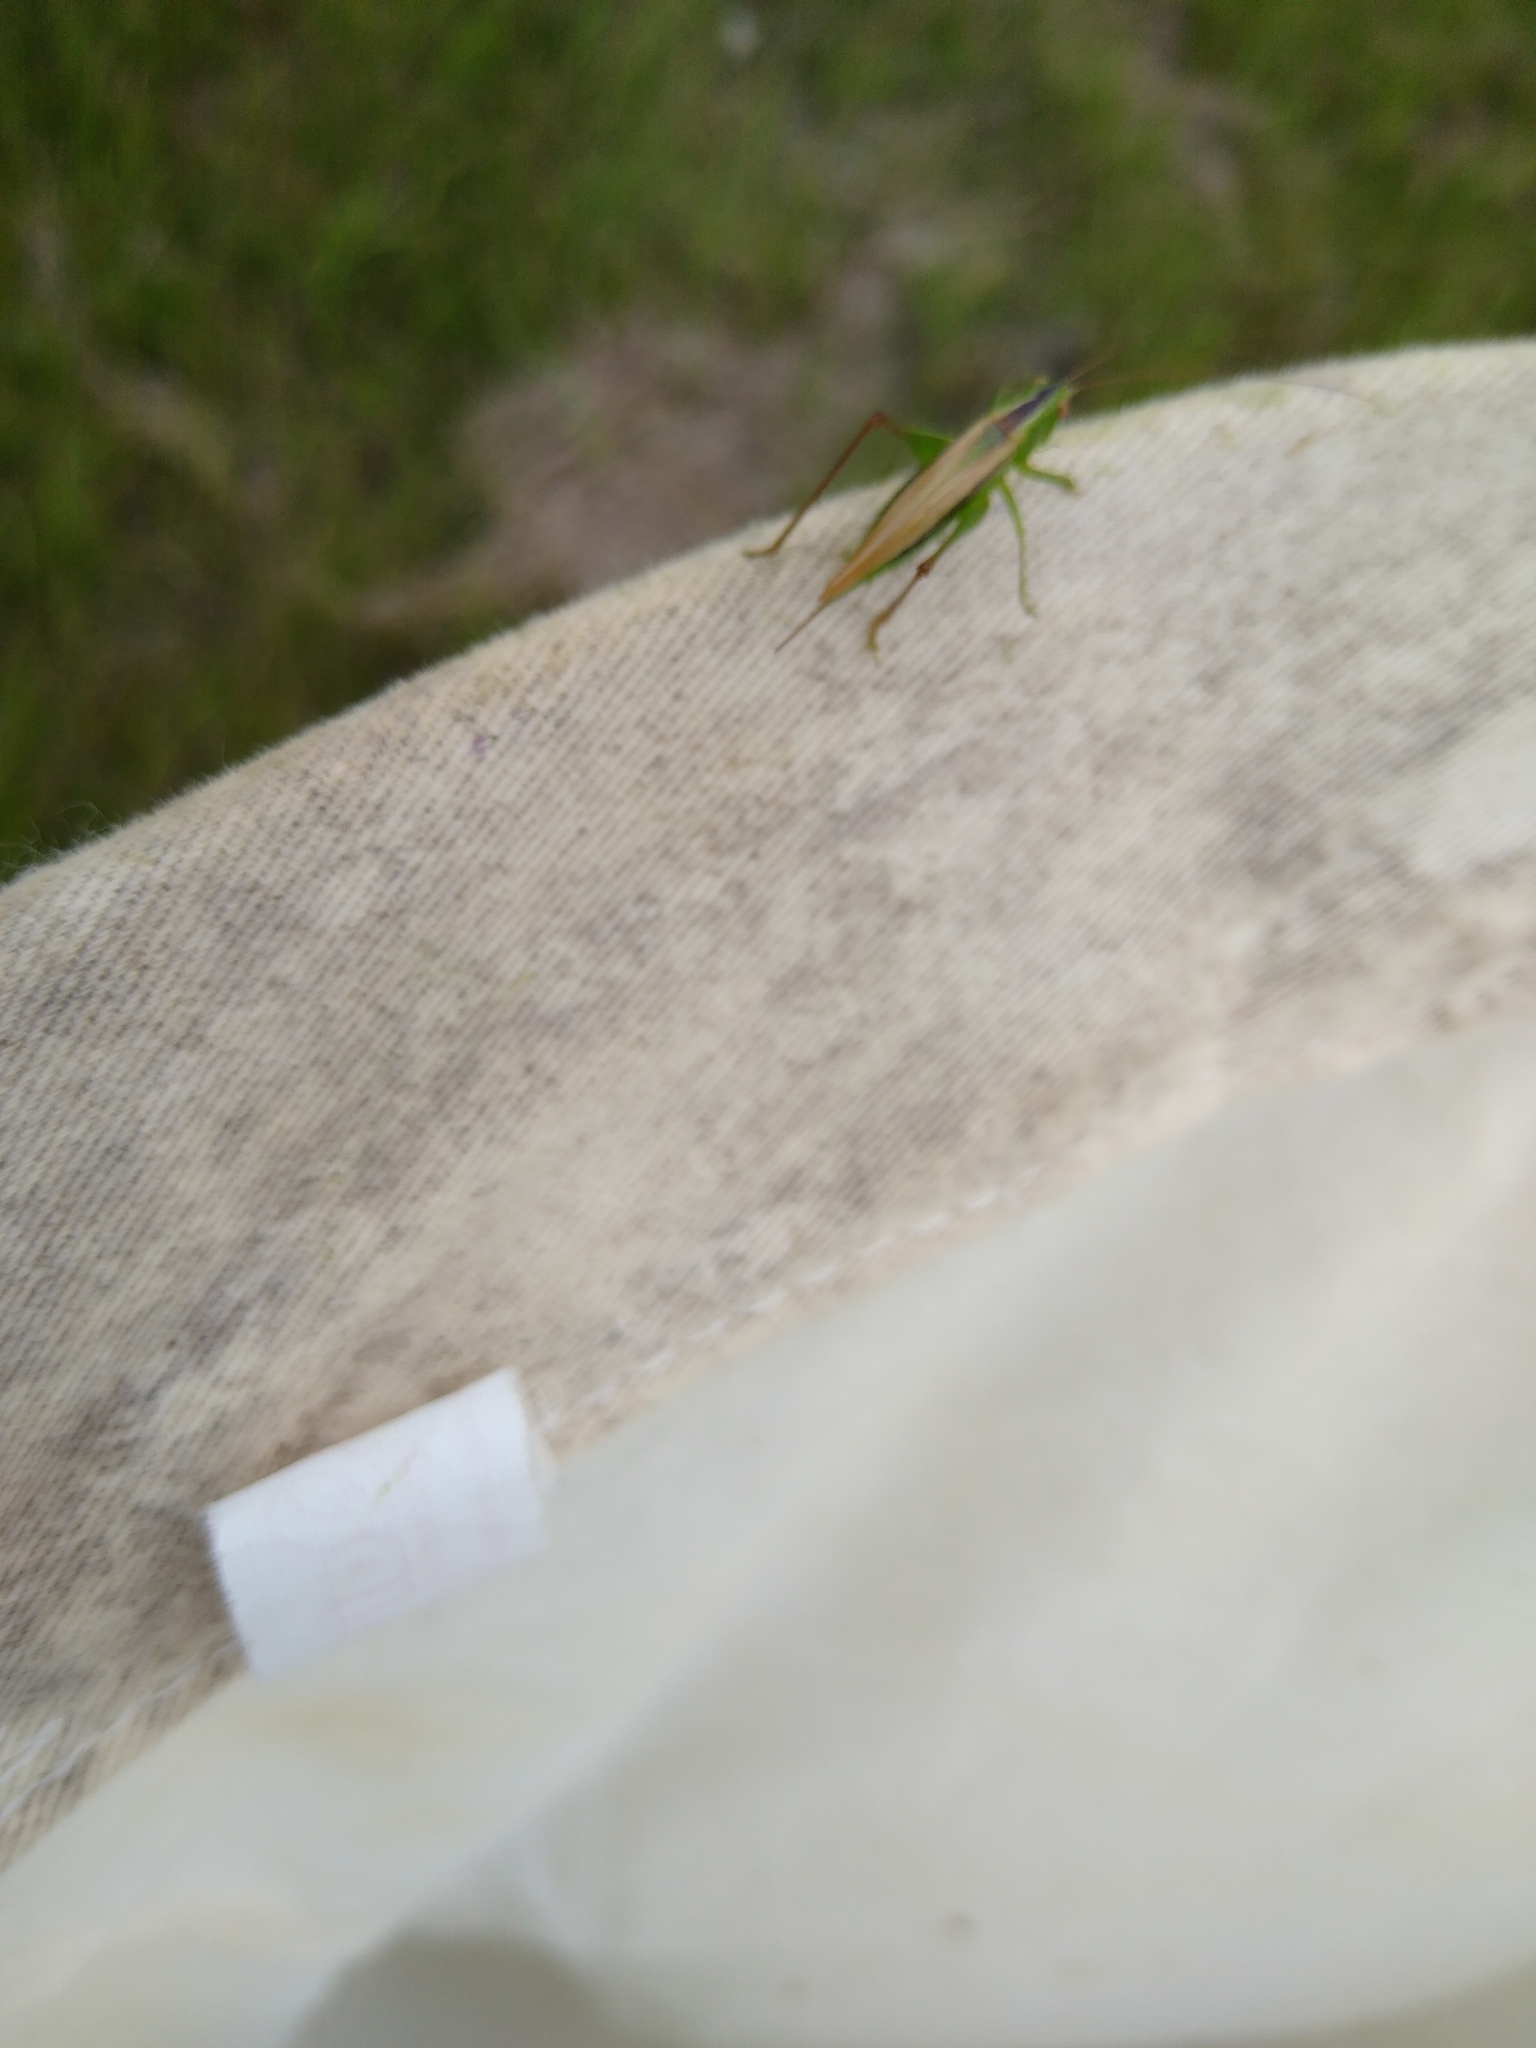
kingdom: Animalia
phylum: Arthropoda
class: Insecta
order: Orthoptera
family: Tettigoniidae
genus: Conocephalus
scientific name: Conocephalus fasciatus
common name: Slender meadow katydid
